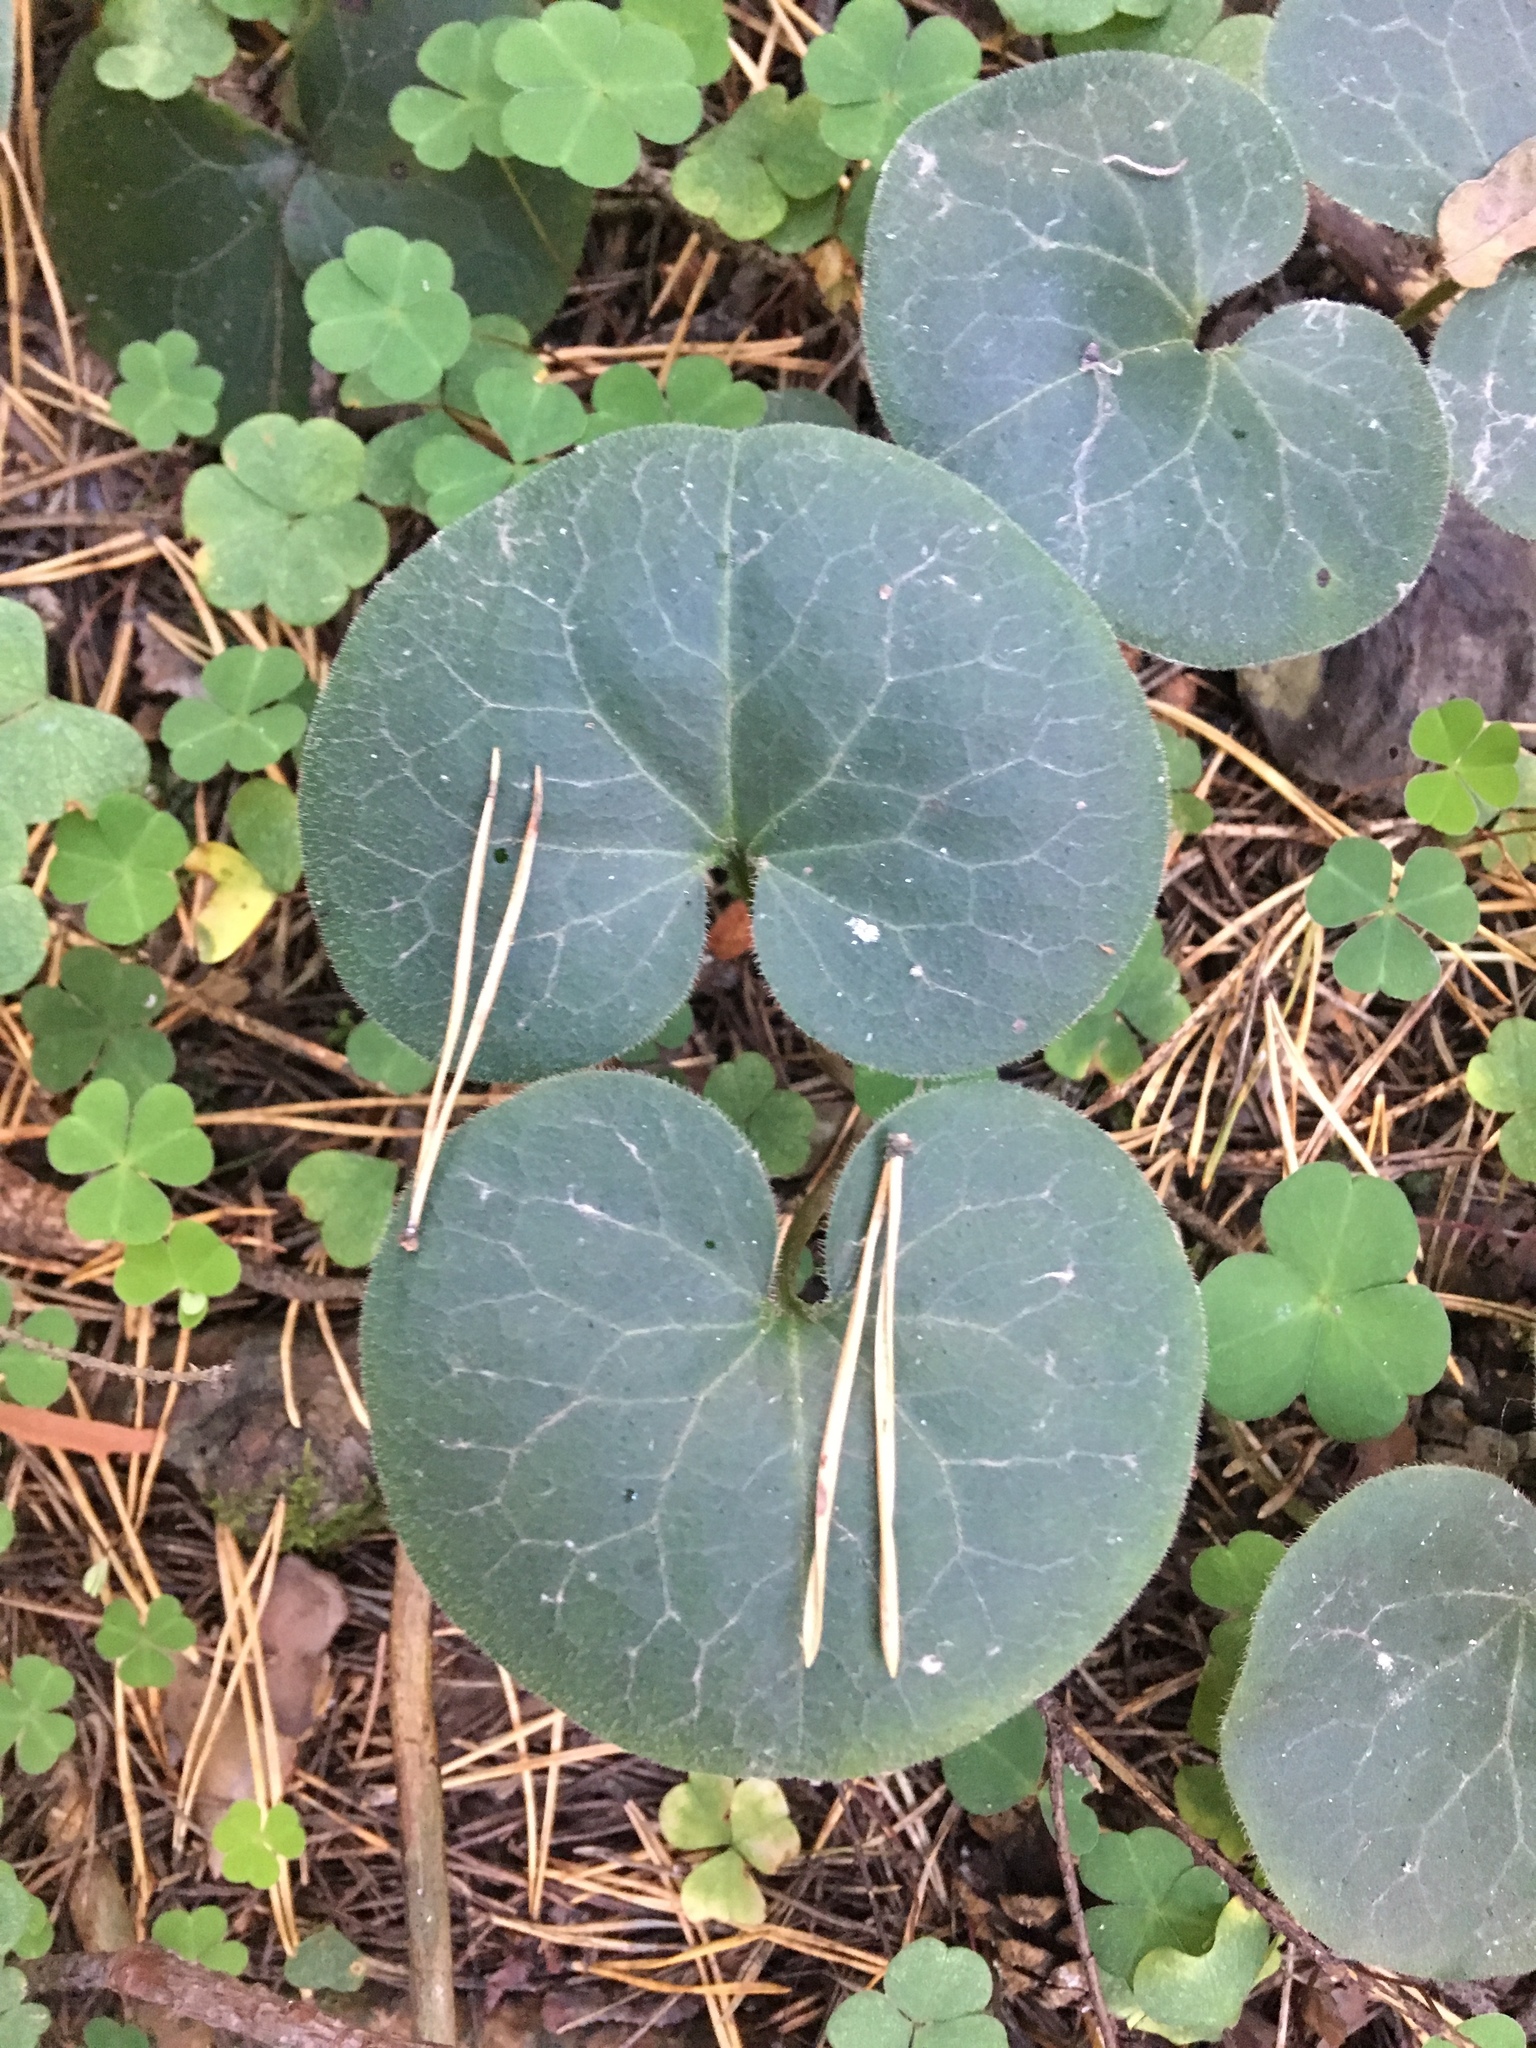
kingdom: Plantae
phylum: Tracheophyta
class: Magnoliopsida
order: Piperales
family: Aristolochiaceae
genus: Asarum
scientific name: Asarum europaeum
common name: Asarabacca
